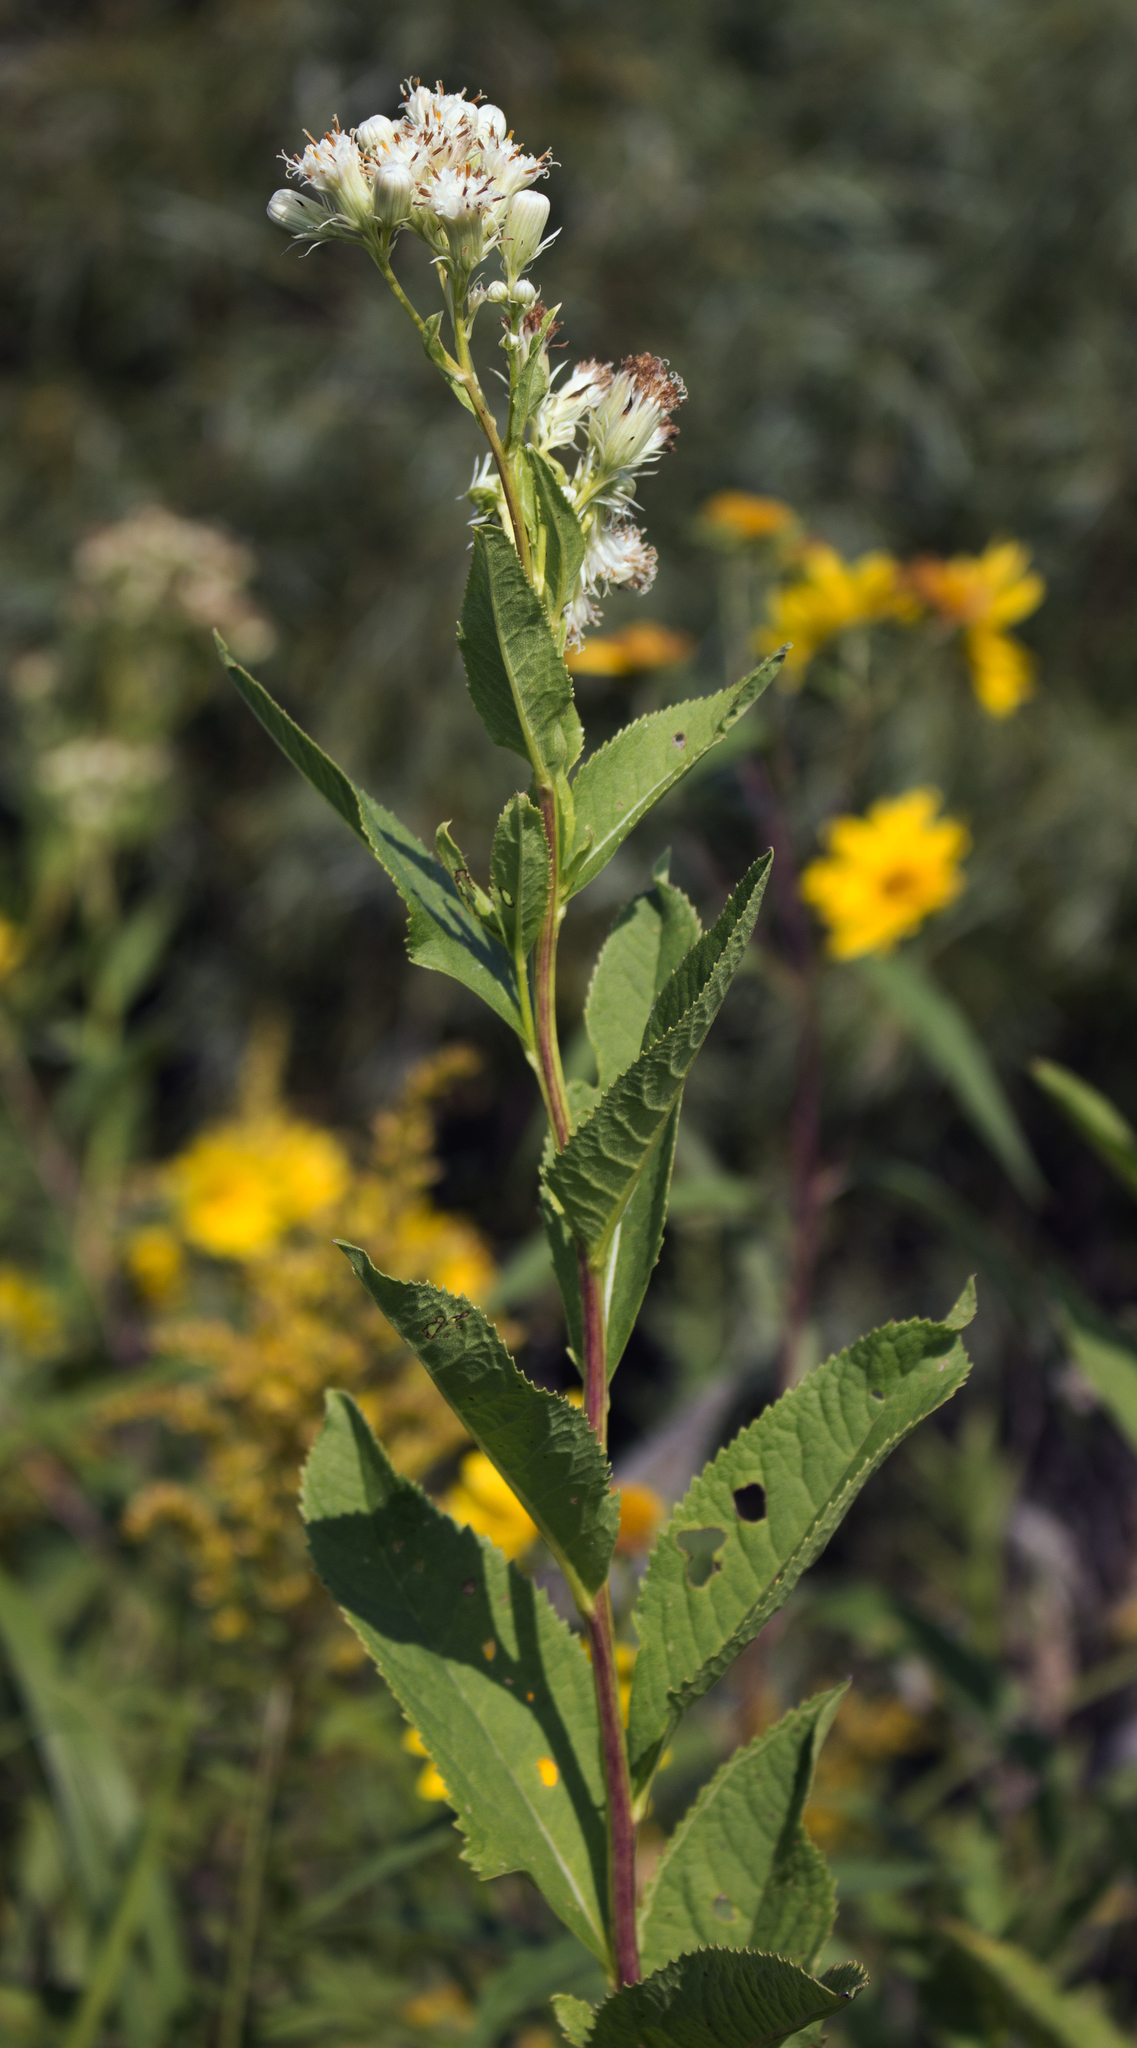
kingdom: Plantae
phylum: Tracheophyta
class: Magnoliopsida
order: Asterales
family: Asteraceae
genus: Hasteola
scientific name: Hasteola suaveolens
